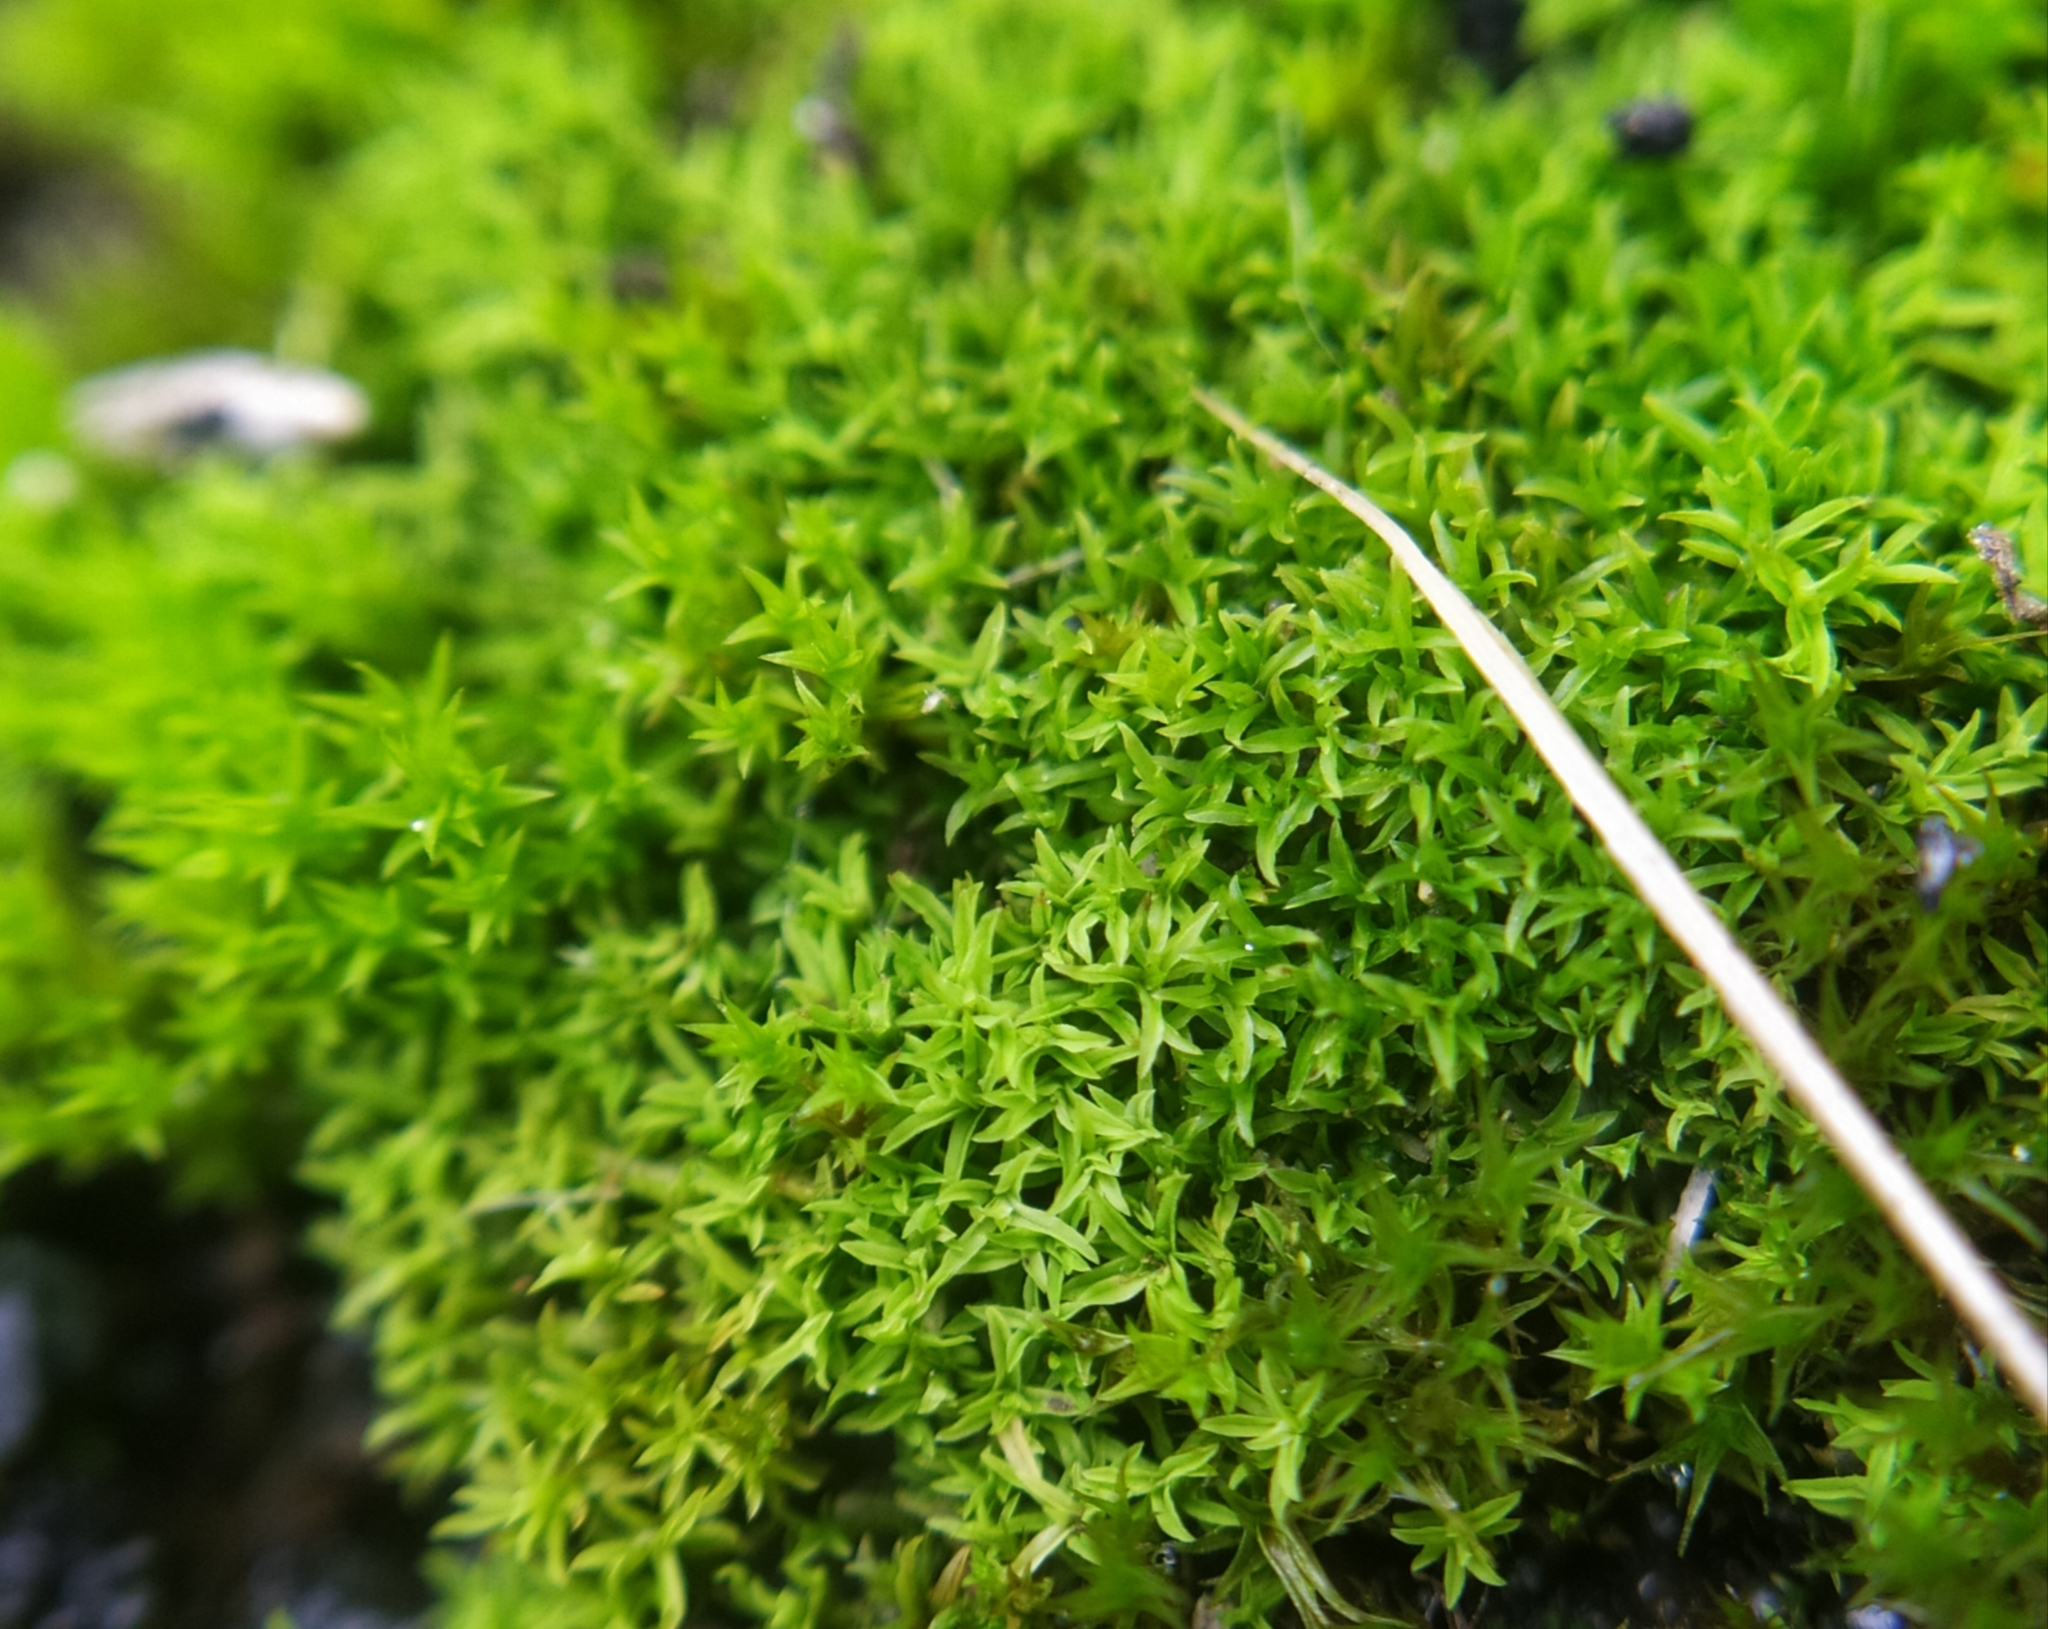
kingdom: Plantae
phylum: Bryophyta
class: Bryopsida
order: Pottiales
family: Pottiaceae
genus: Barbula
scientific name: Barbula unguiculata
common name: Prickly beard moss
